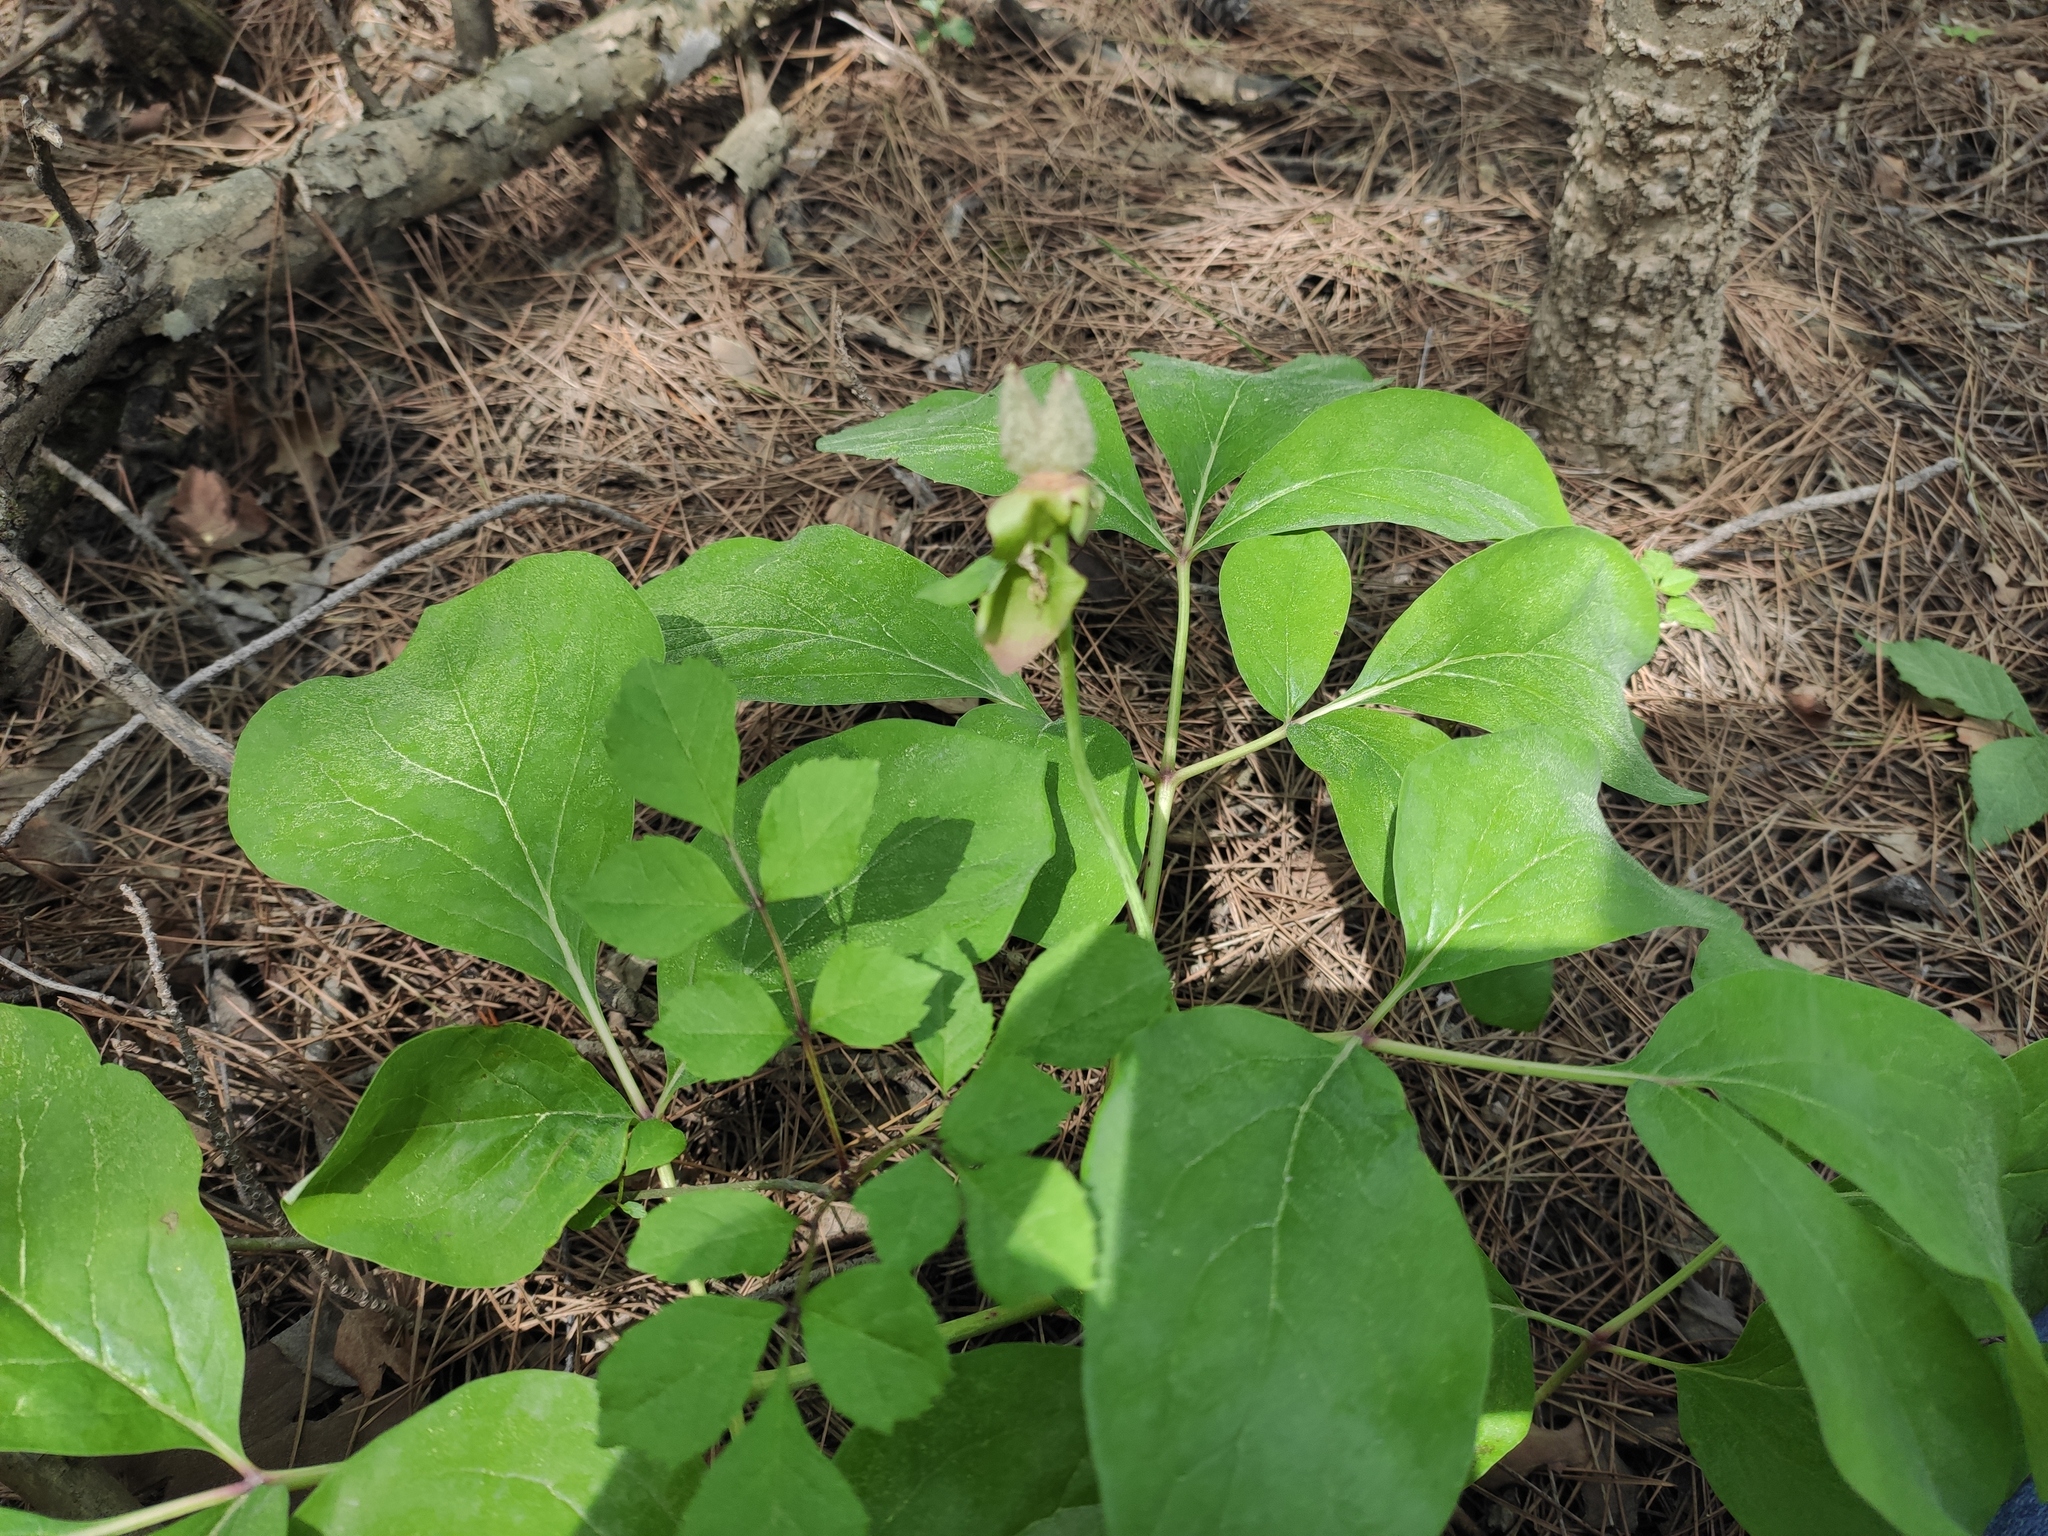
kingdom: Plantae
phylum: Tracheophyta
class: Magnoliopsida
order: Saxifragales
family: Paeoniaceae
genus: Paeonia
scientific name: Paeonia caucasica
